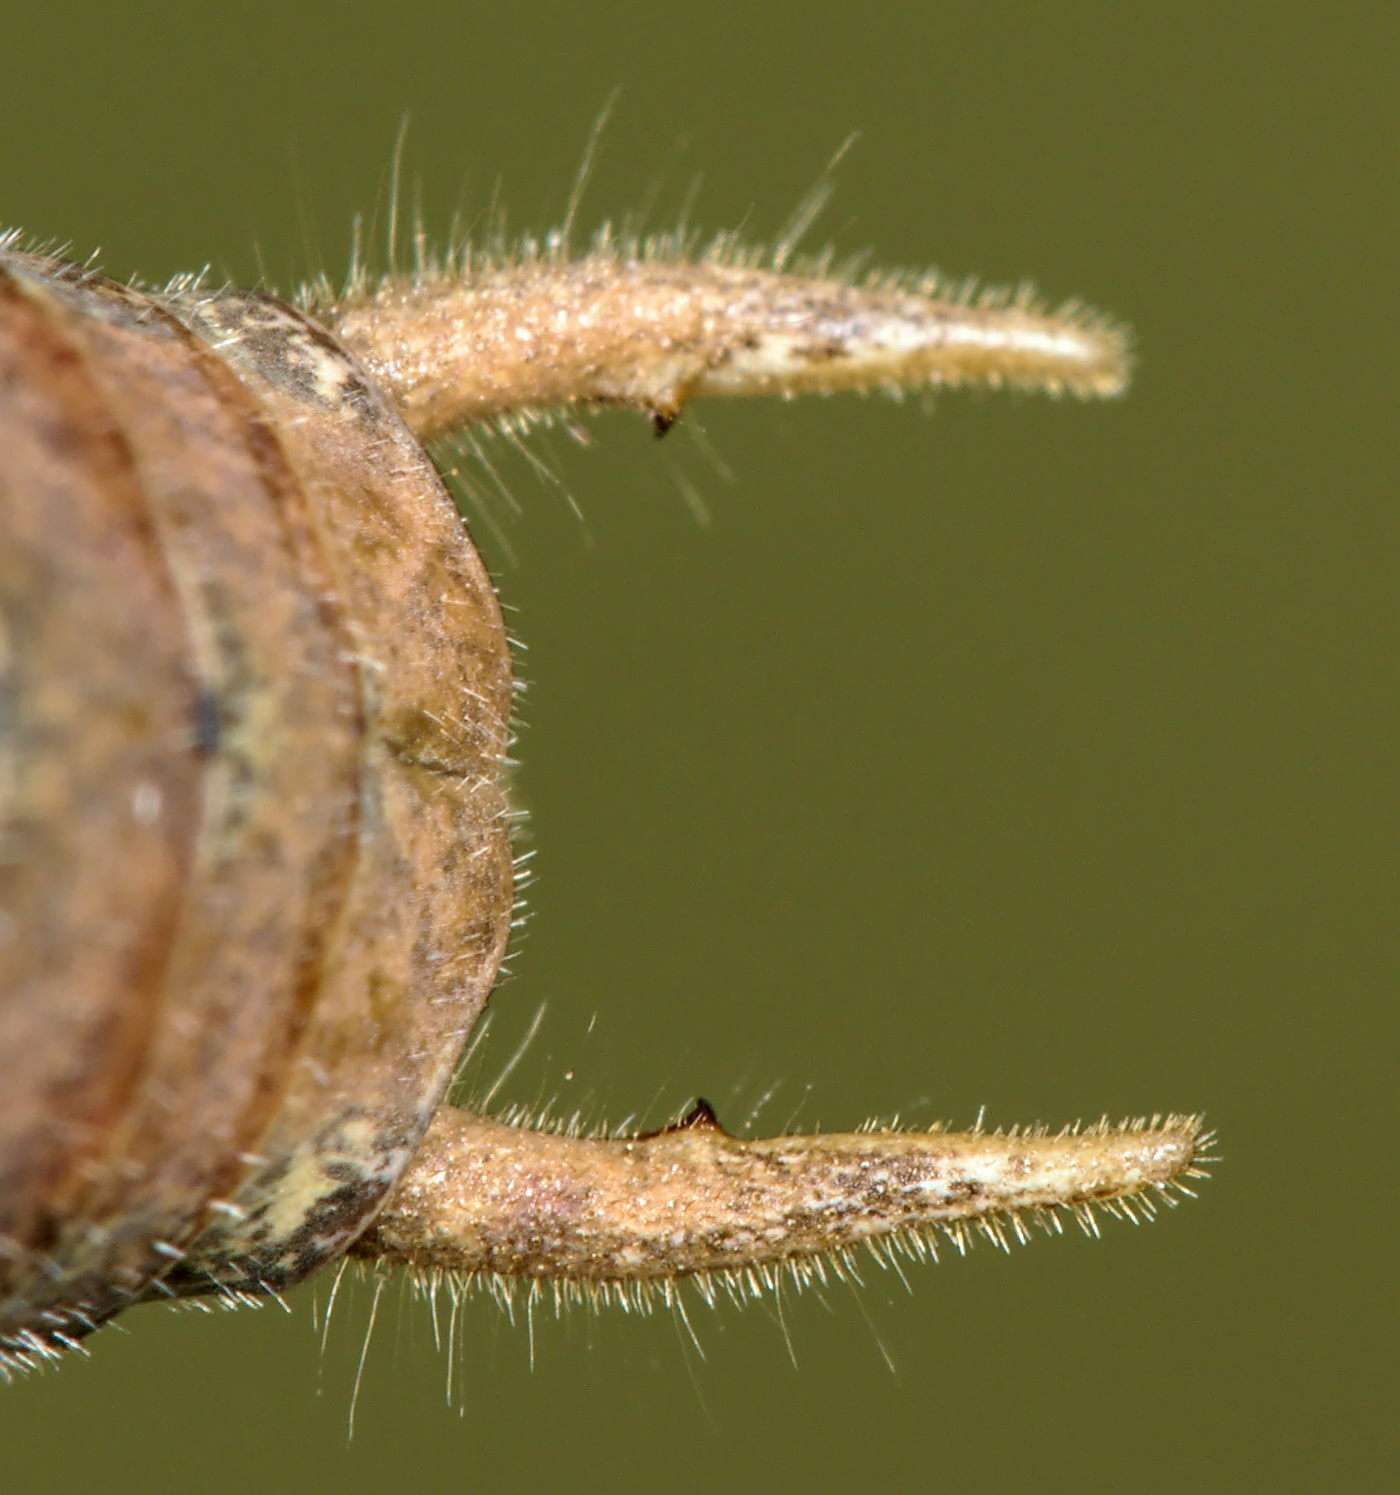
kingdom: Animalia
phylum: Arthropoda
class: Insecta
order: Orthoptera
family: Tettigoniidae
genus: Pholidoptera
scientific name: Pholidoptera fallax
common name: Fischer's bush-cricket
